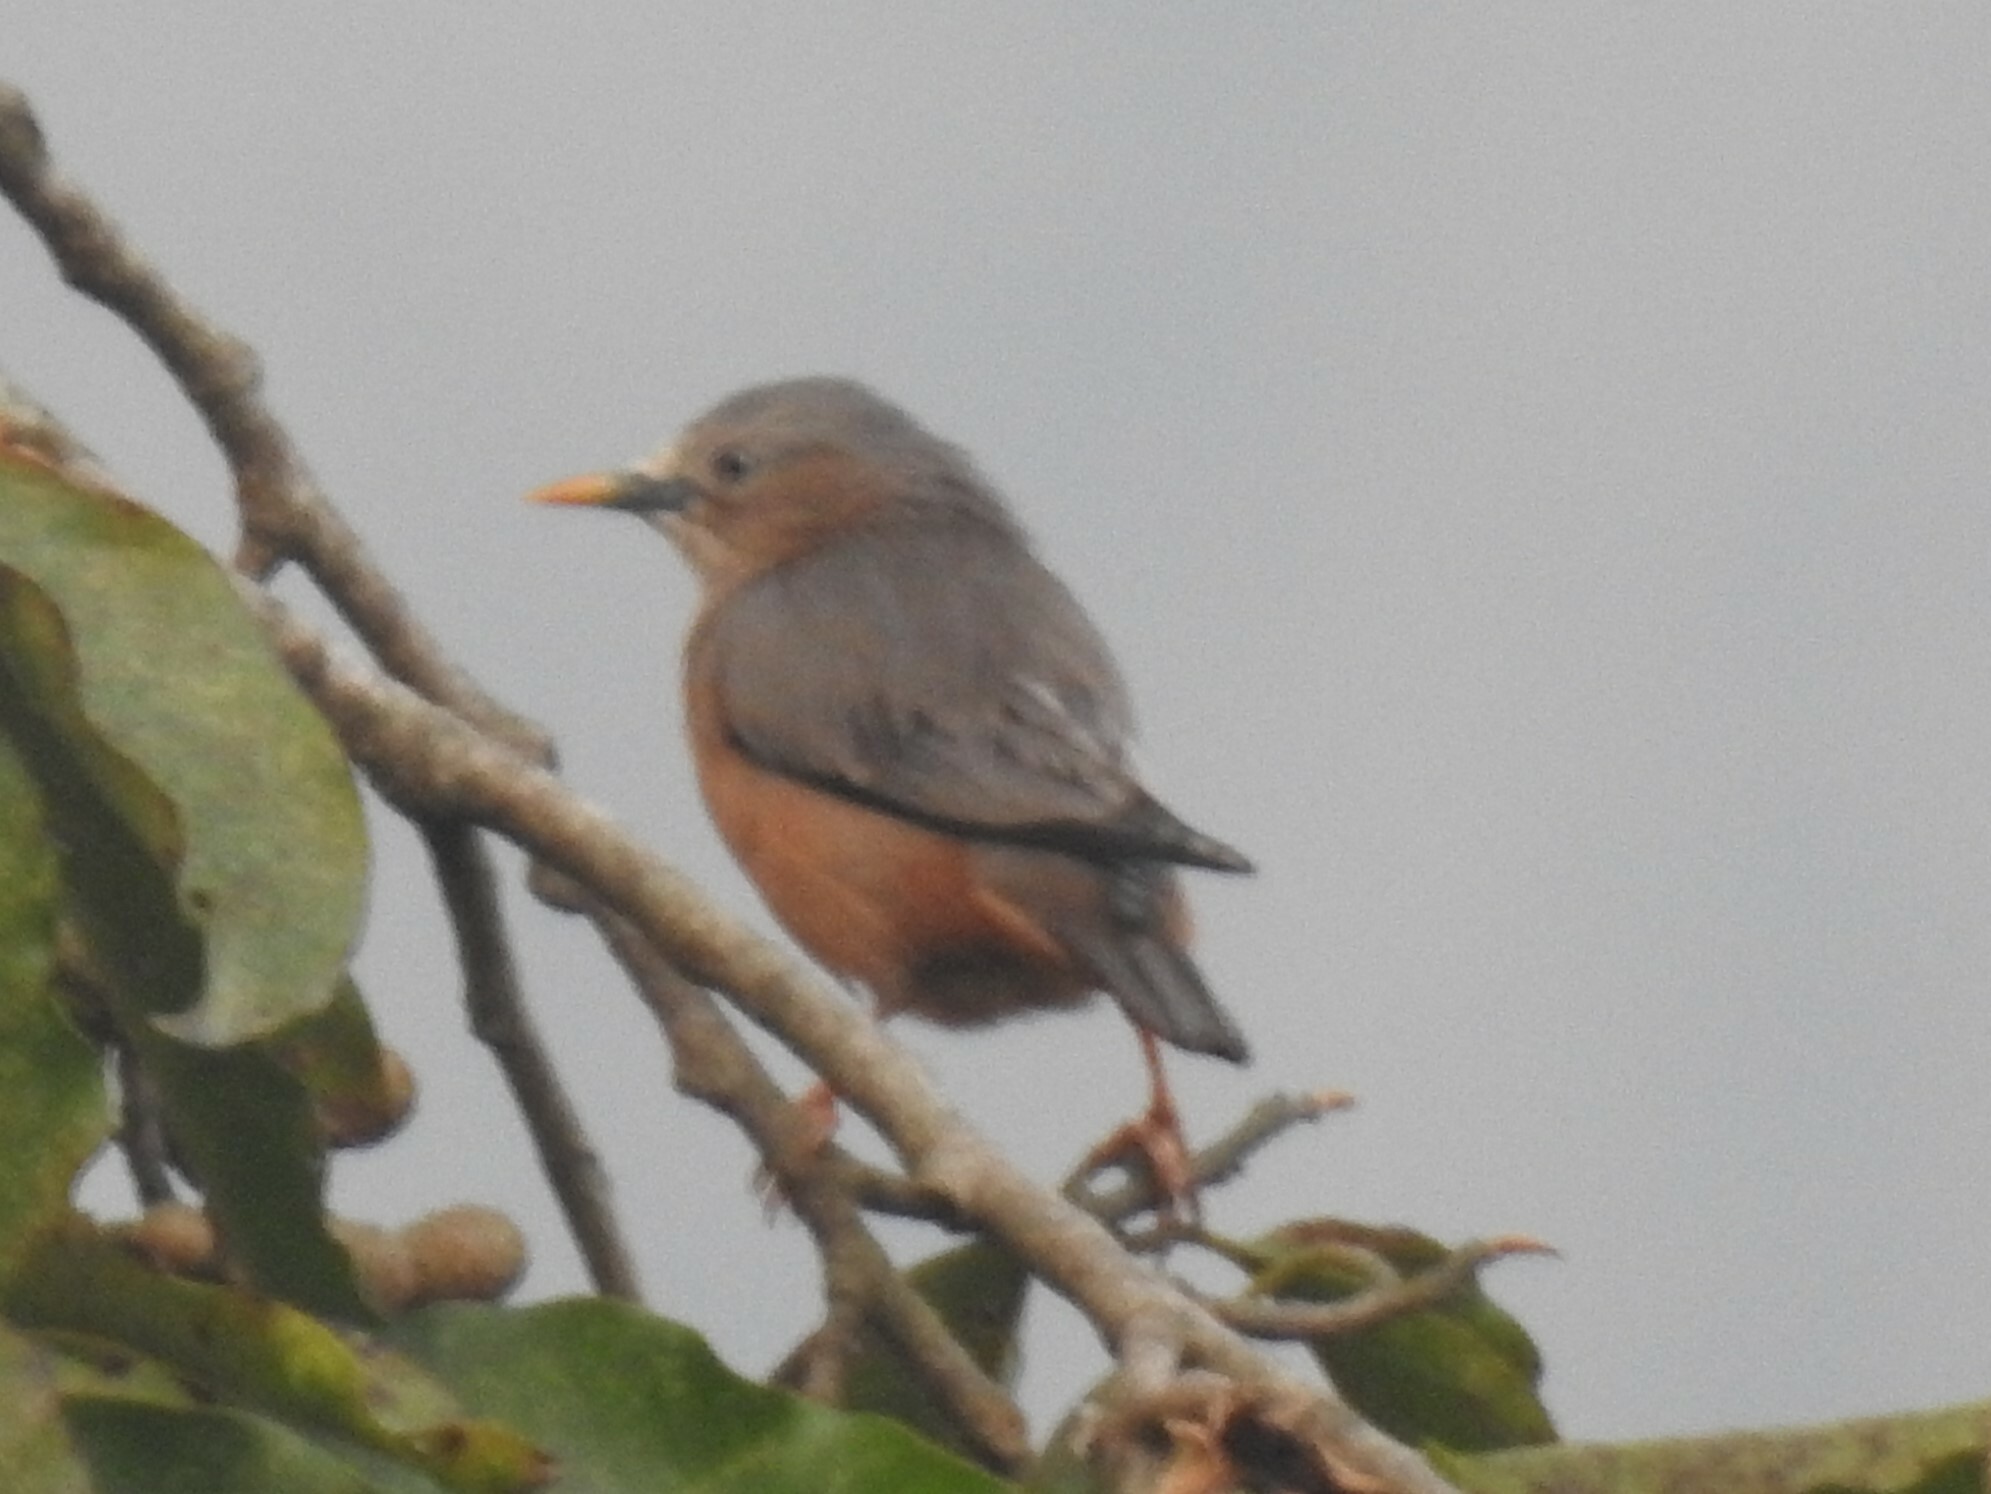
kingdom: Animalia
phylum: Chordata
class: Aves
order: Passeriformes
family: Sturnidae
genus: Sturnia
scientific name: Sturnia malabarica
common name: Chestnut-tailed starling
